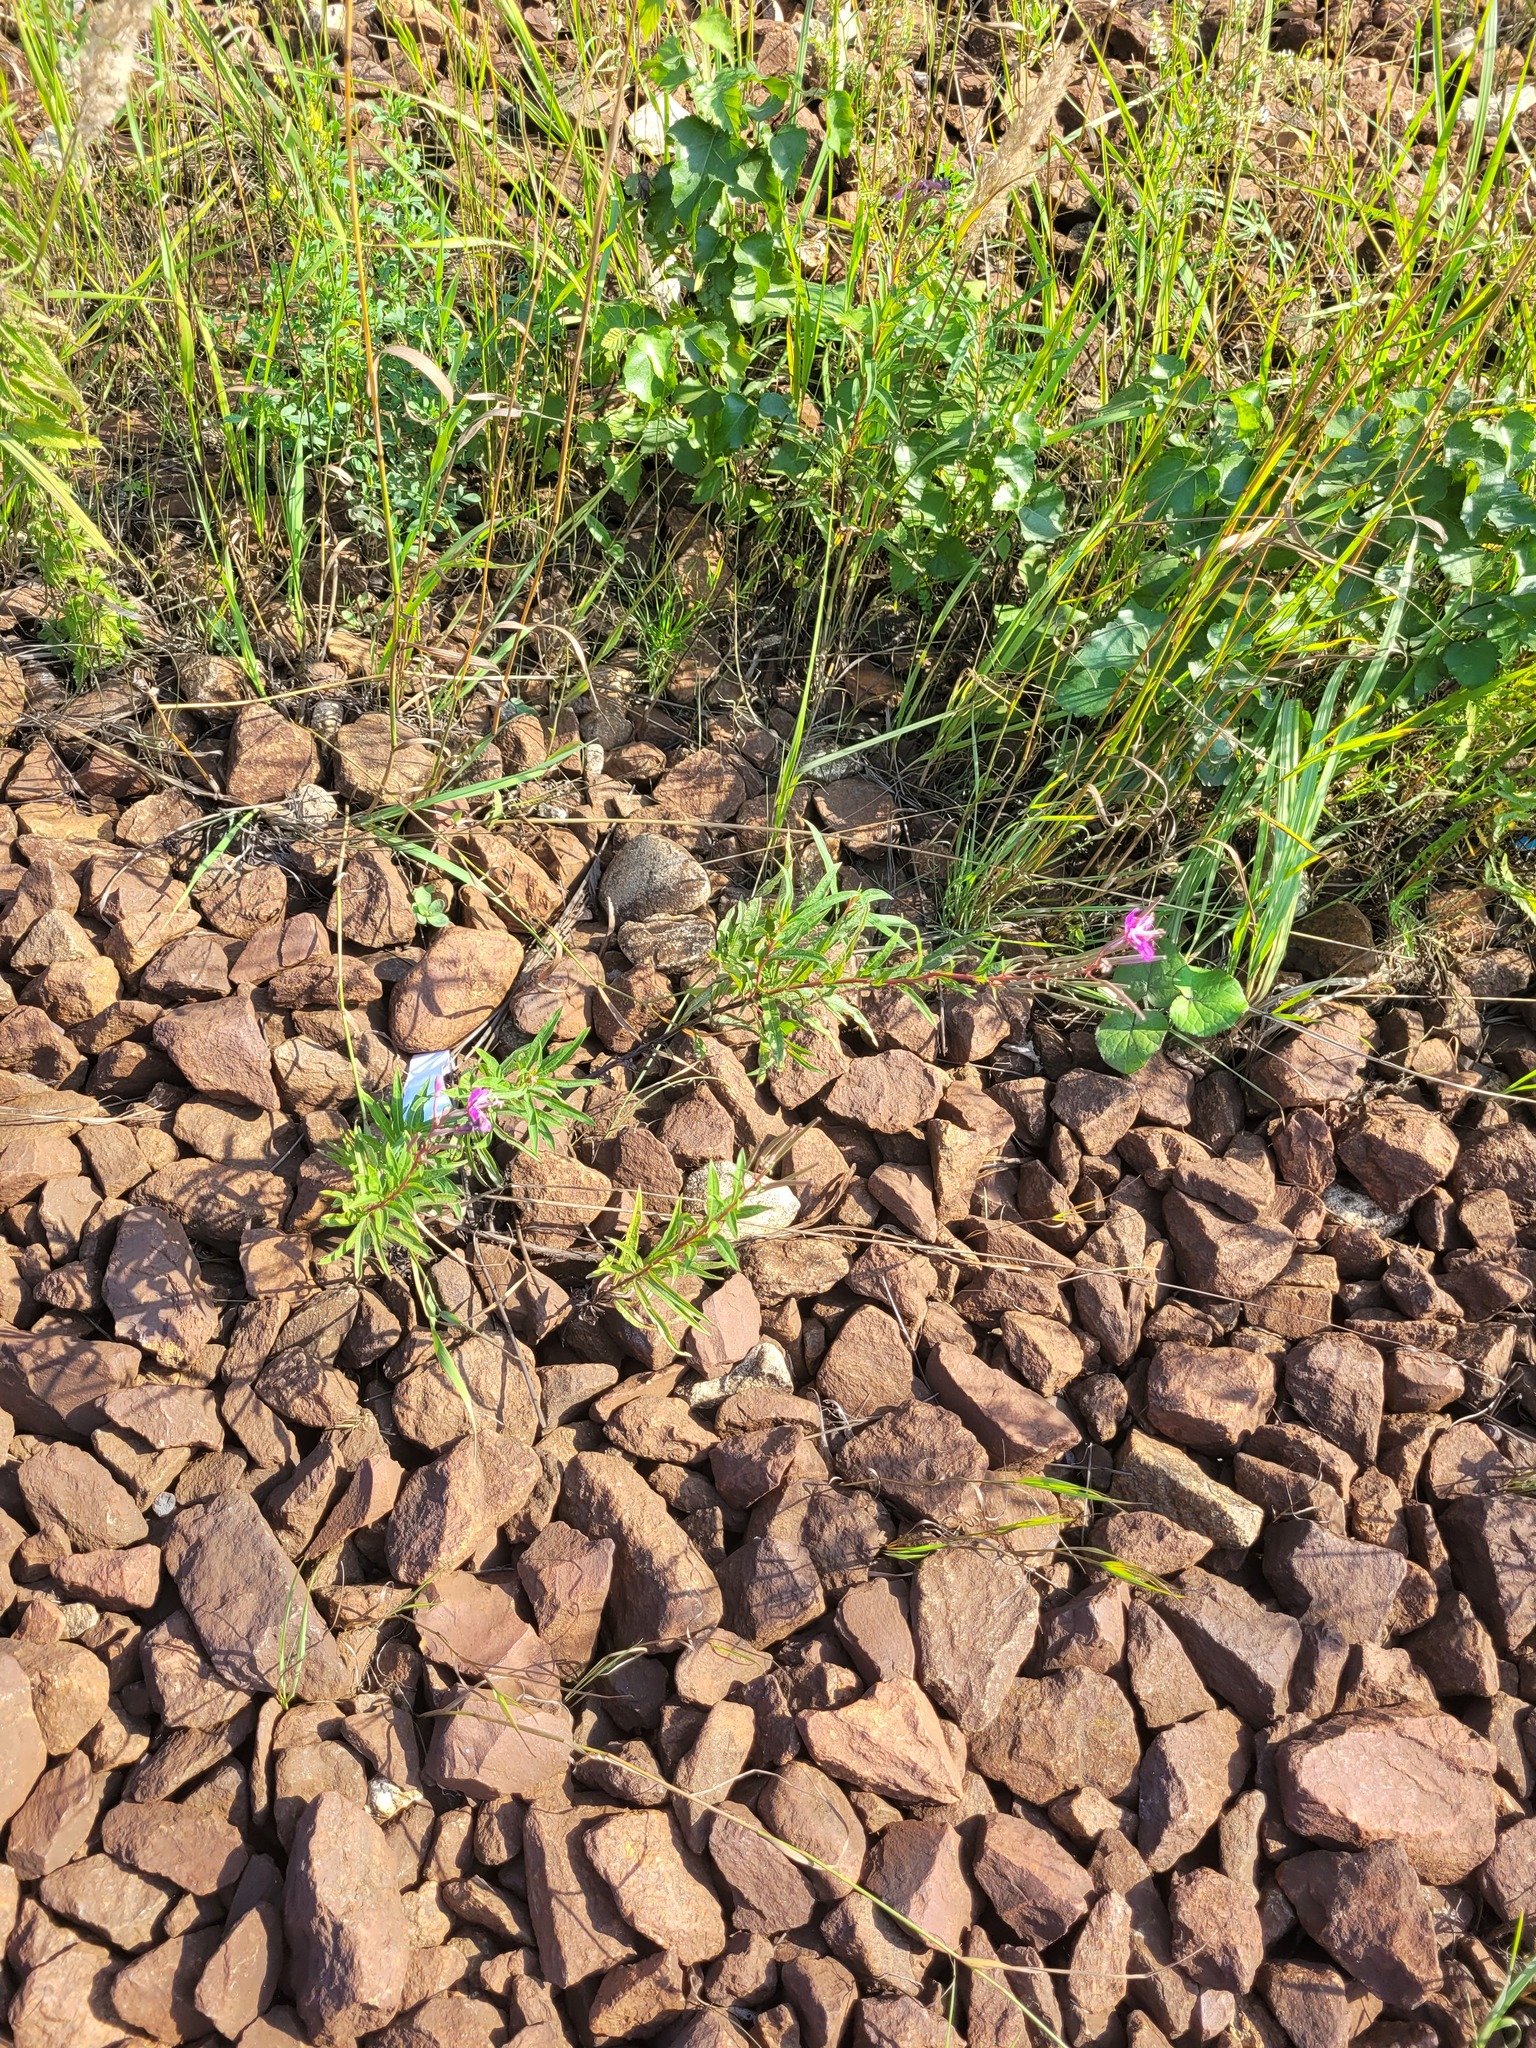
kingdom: Plantae
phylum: Tracheophyta
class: Magnoliopsida
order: Myrtales
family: Onagraceae
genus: Chamaenerion
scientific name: Chamaenerion angustifolium
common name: Fireweed
